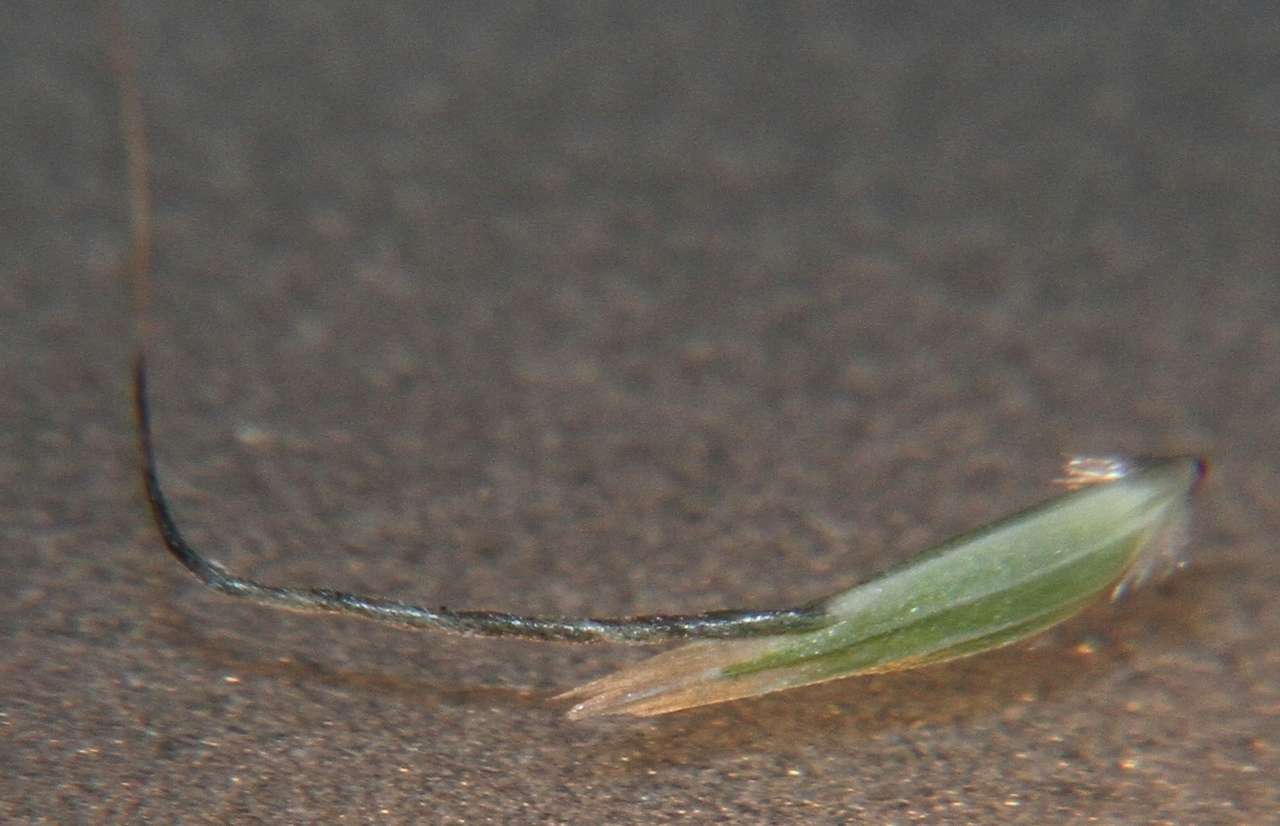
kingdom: Plantae
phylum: Tracheophyta
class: Liliopsida
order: Poales
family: Poaceae
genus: Amphibromus
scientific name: Amphibromus nervosus
